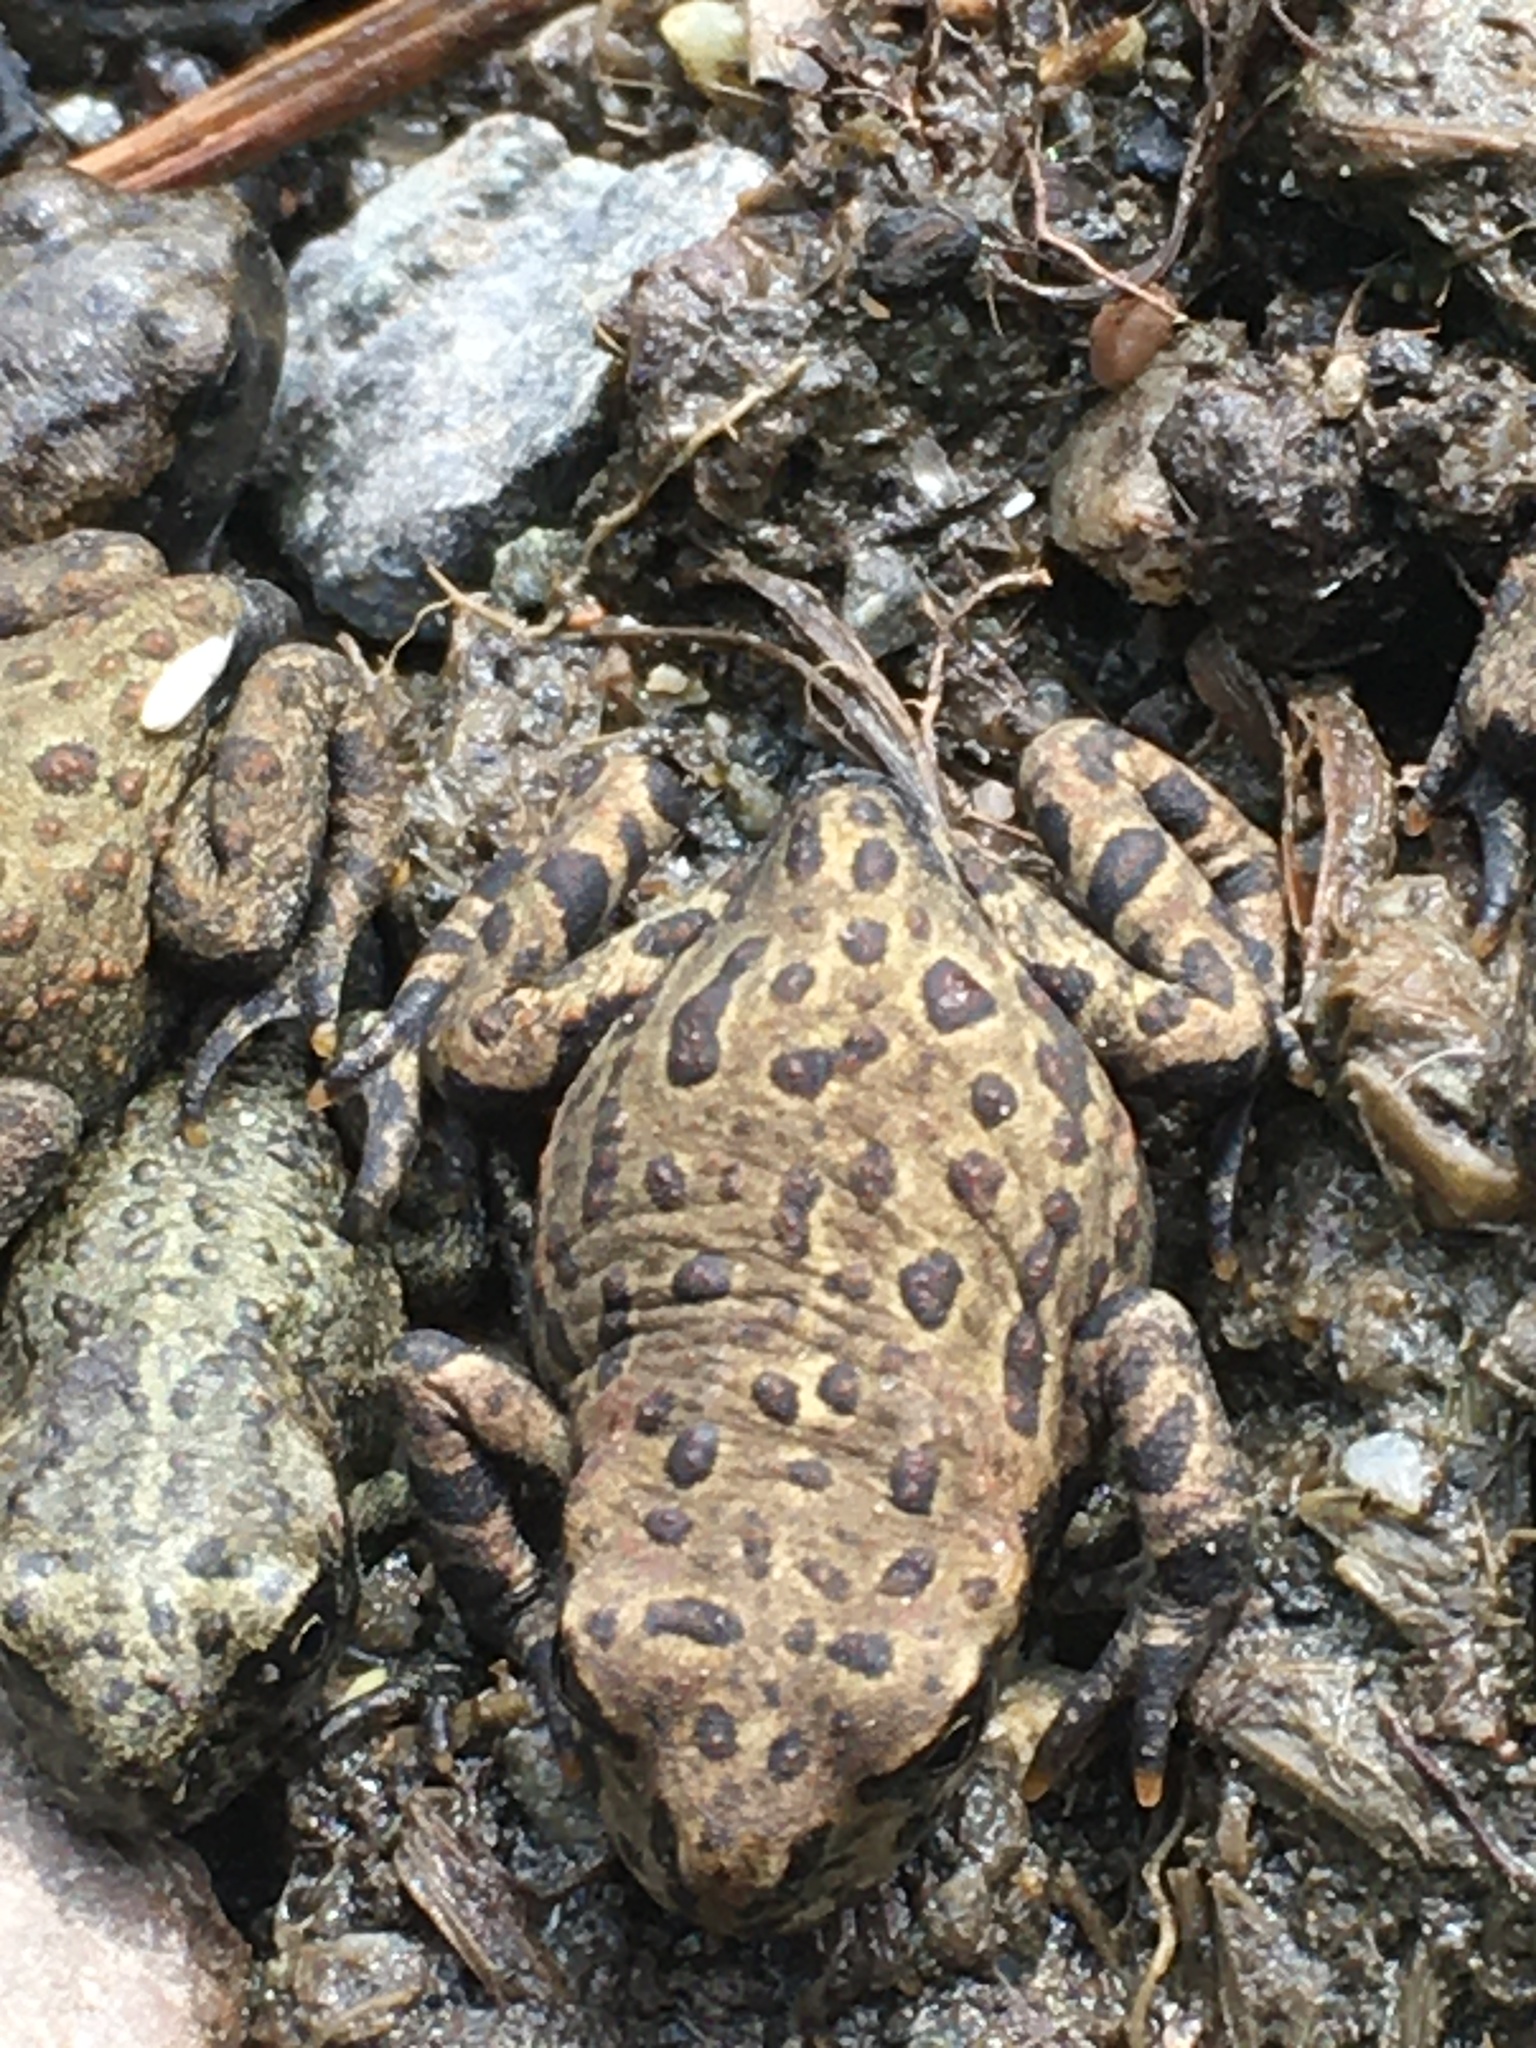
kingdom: Animalia
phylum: Chordata
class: Amphibia
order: Anura
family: Bufonidae
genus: Anaxyrus
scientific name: Anaxyrus boreas
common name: Western toad
